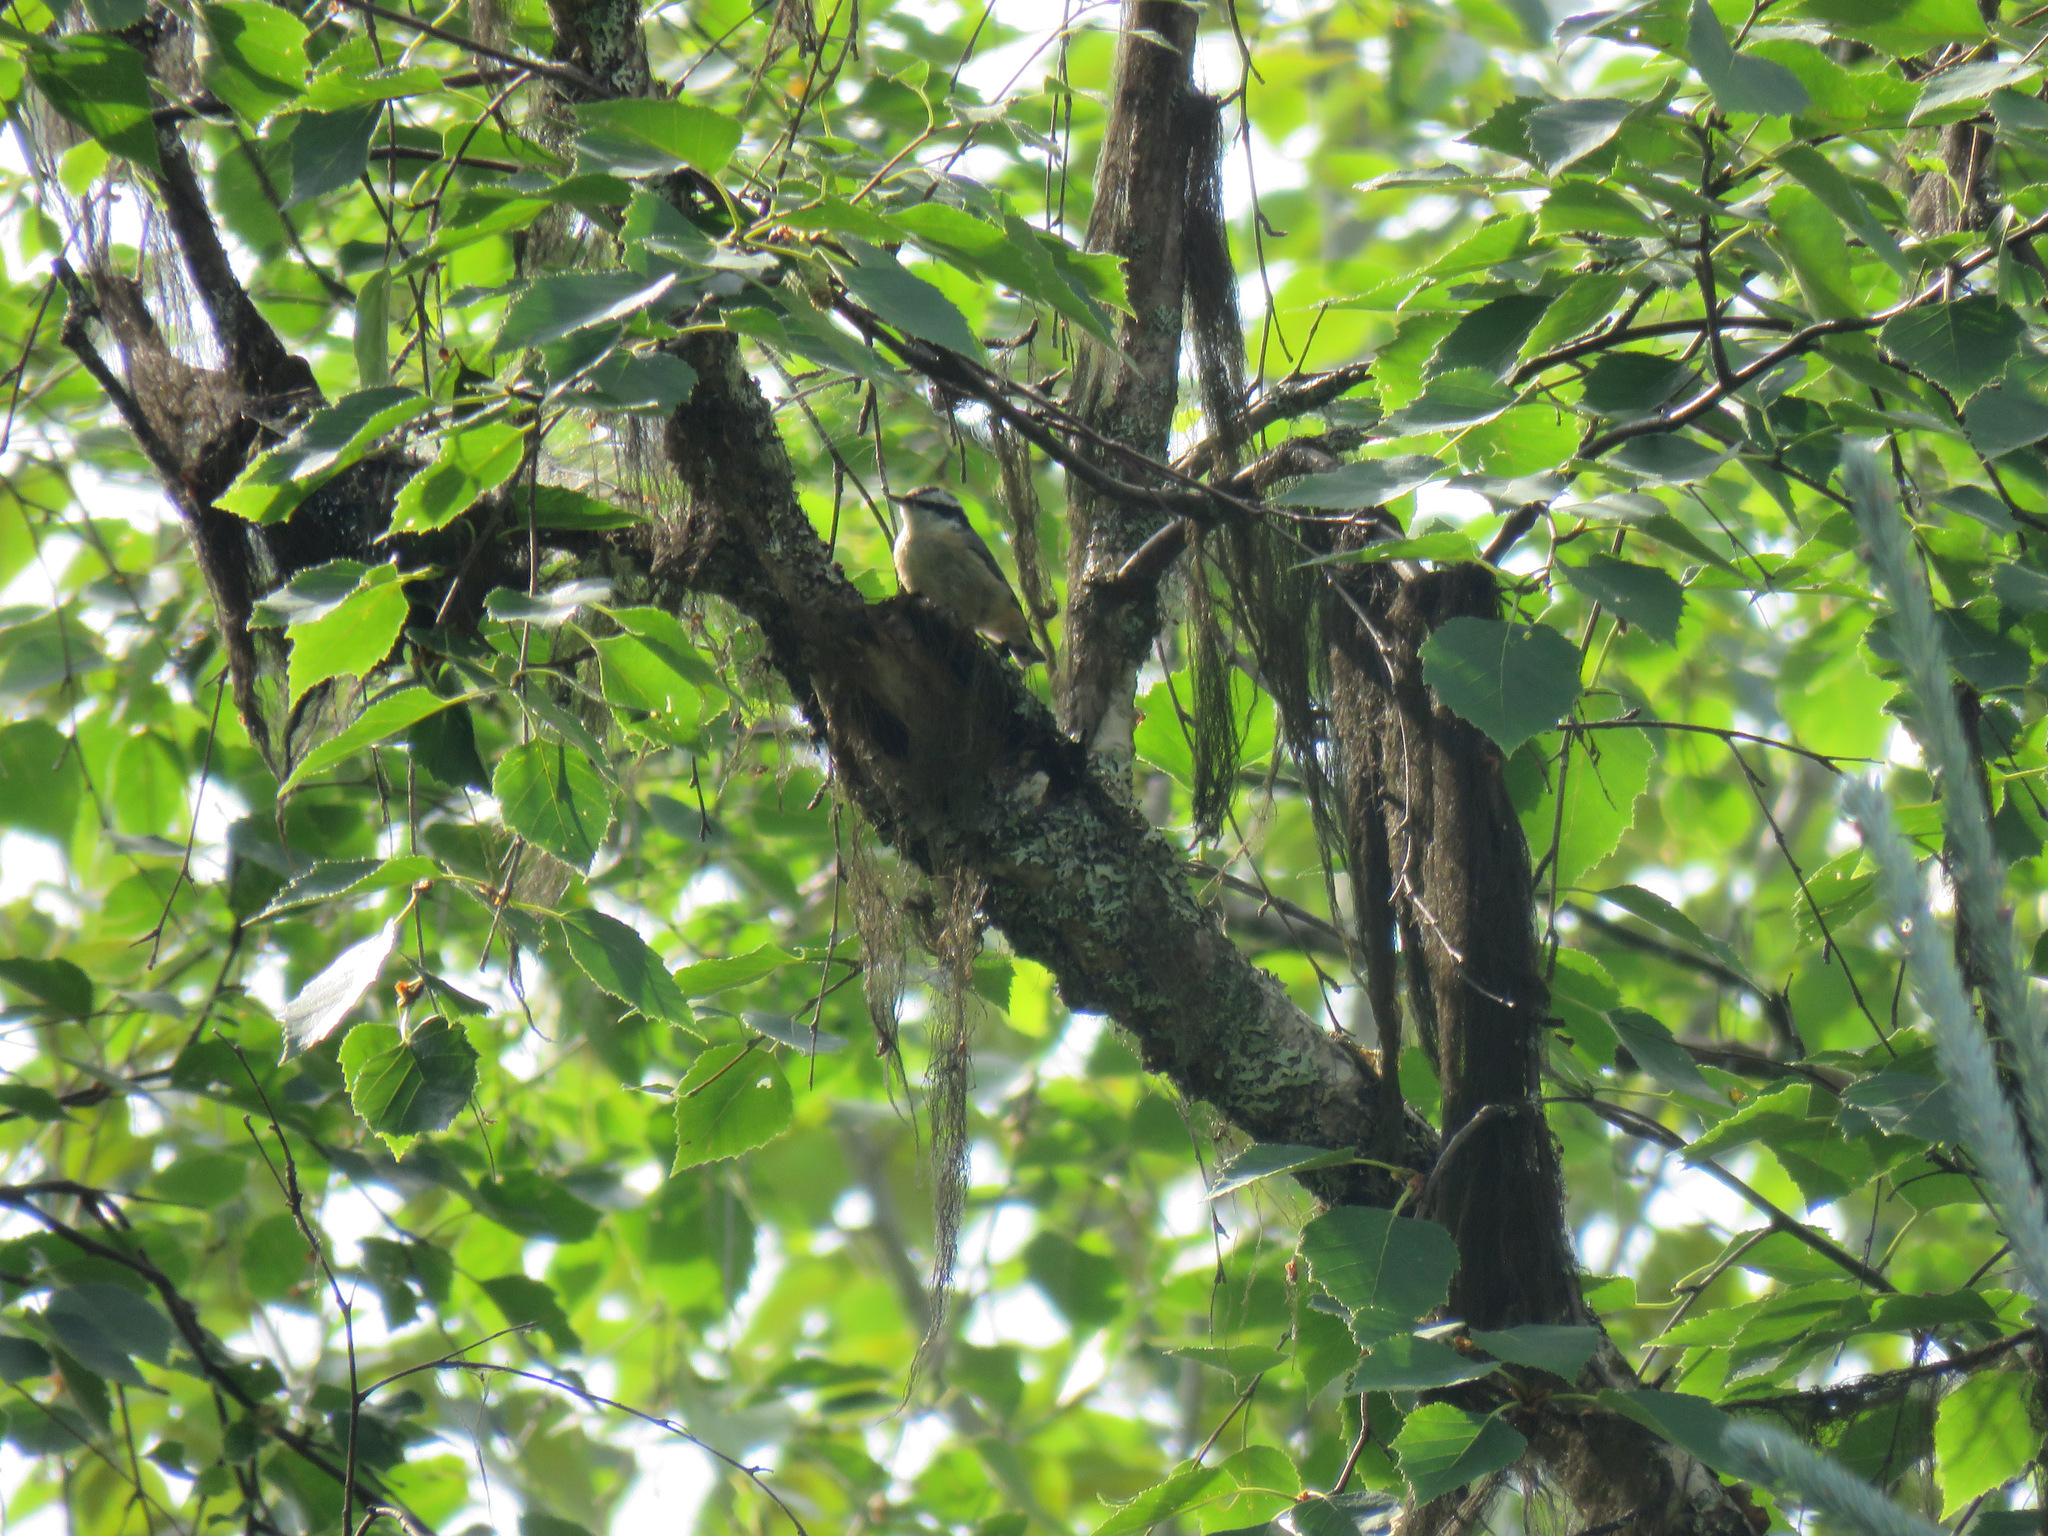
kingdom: Animalia
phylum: Chordata
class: Aves
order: Passeriformes
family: Sittidae
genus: Sitta
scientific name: Sitta canadensis
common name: Red-breasted nuthatch
